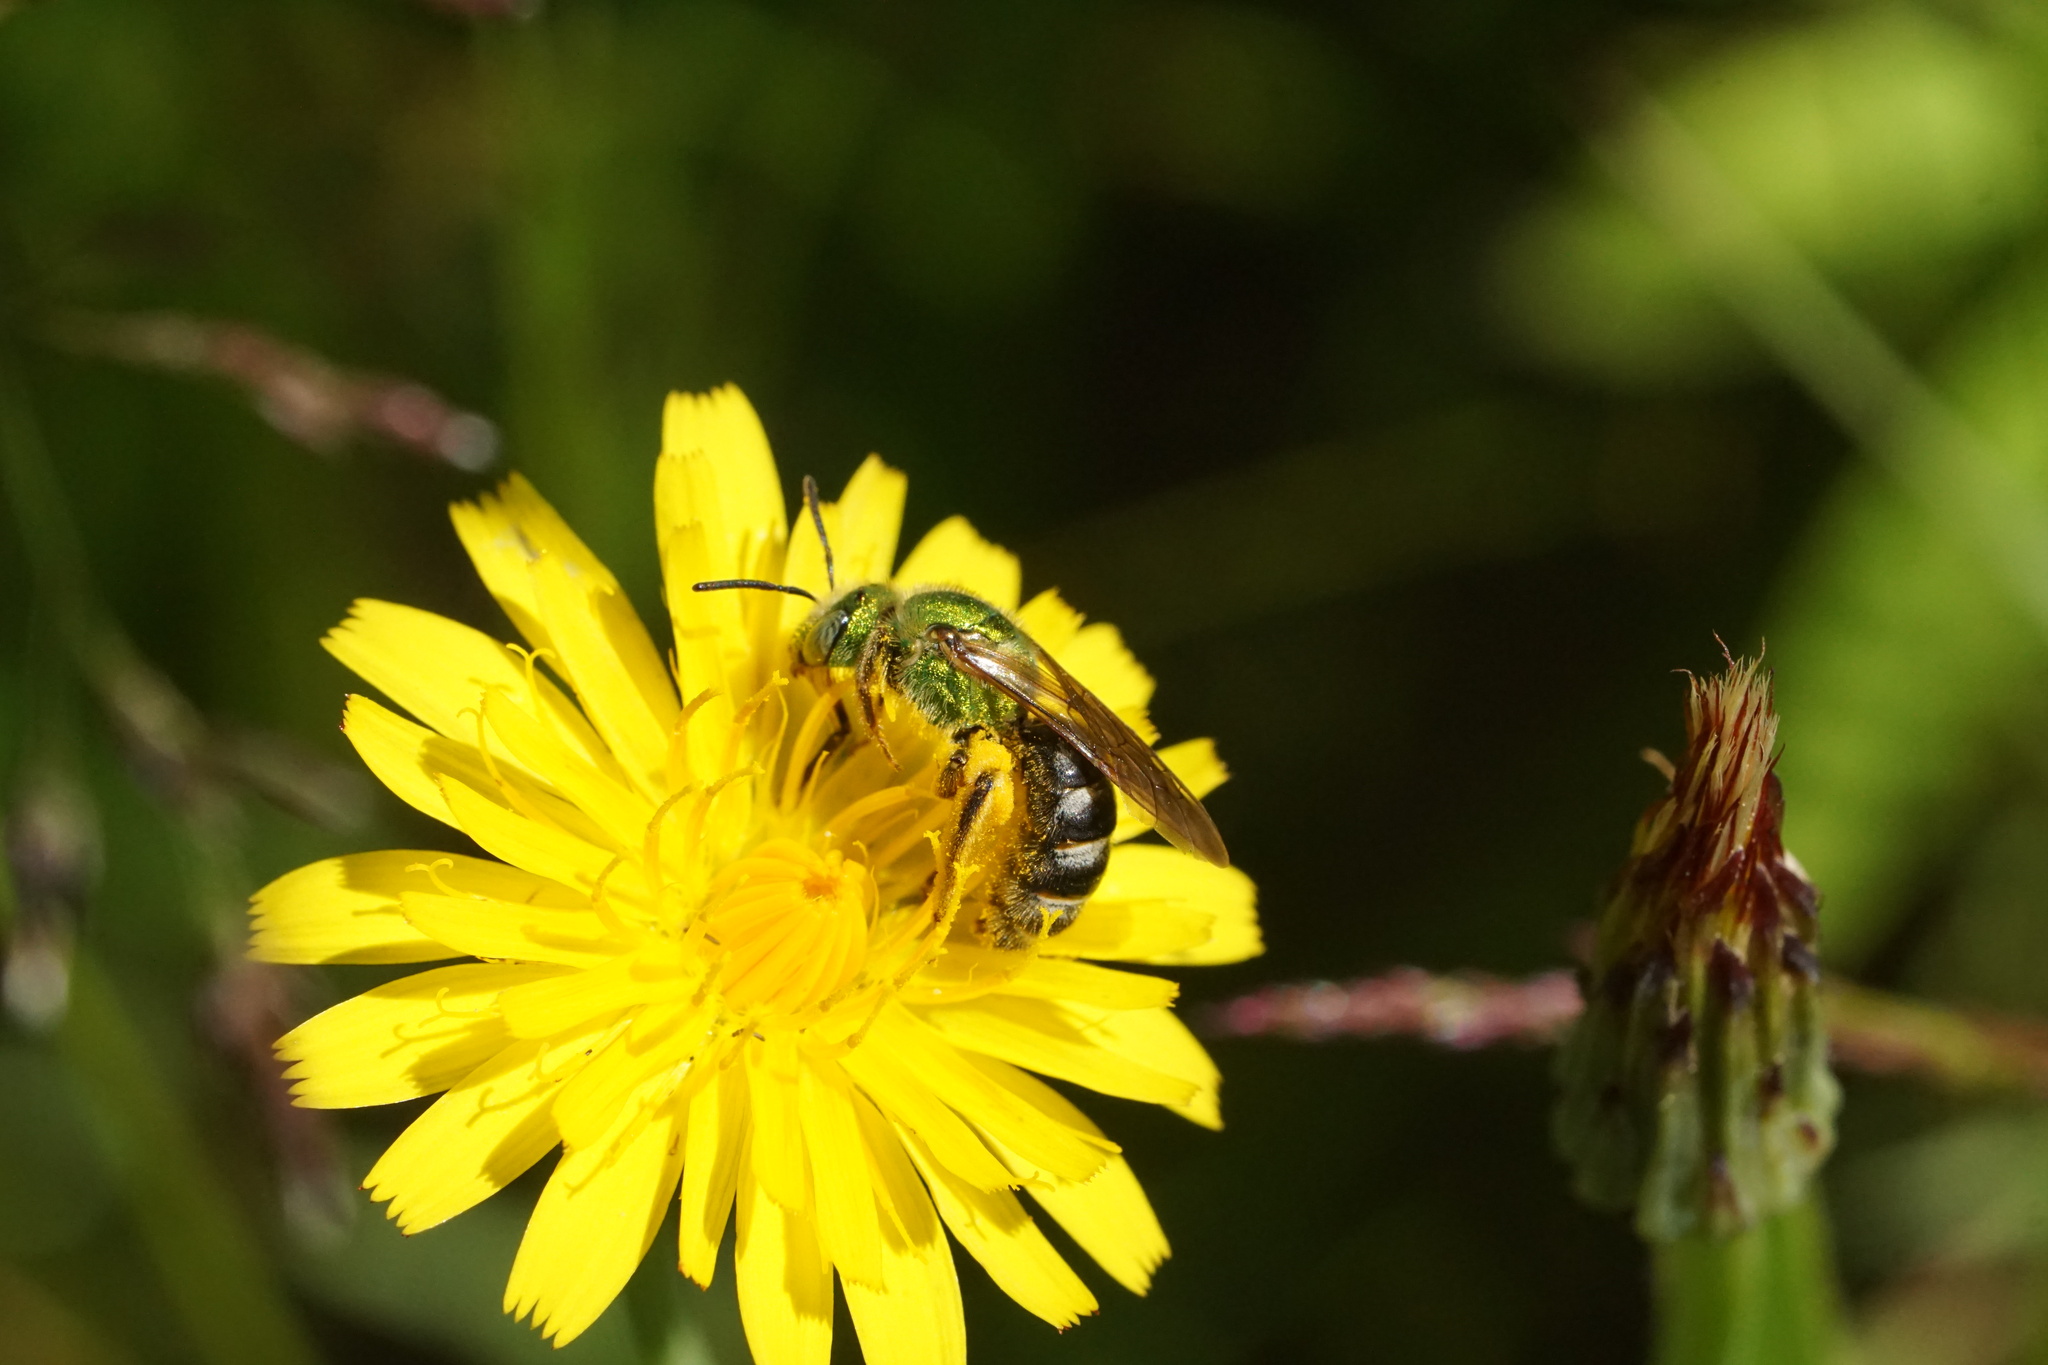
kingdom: Animalia
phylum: Arthropoda
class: Insecta
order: Hymenoptera
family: Halictidae
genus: Agapostemon
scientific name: Agapostemon virescens
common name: Bicolored striped sweat bee
